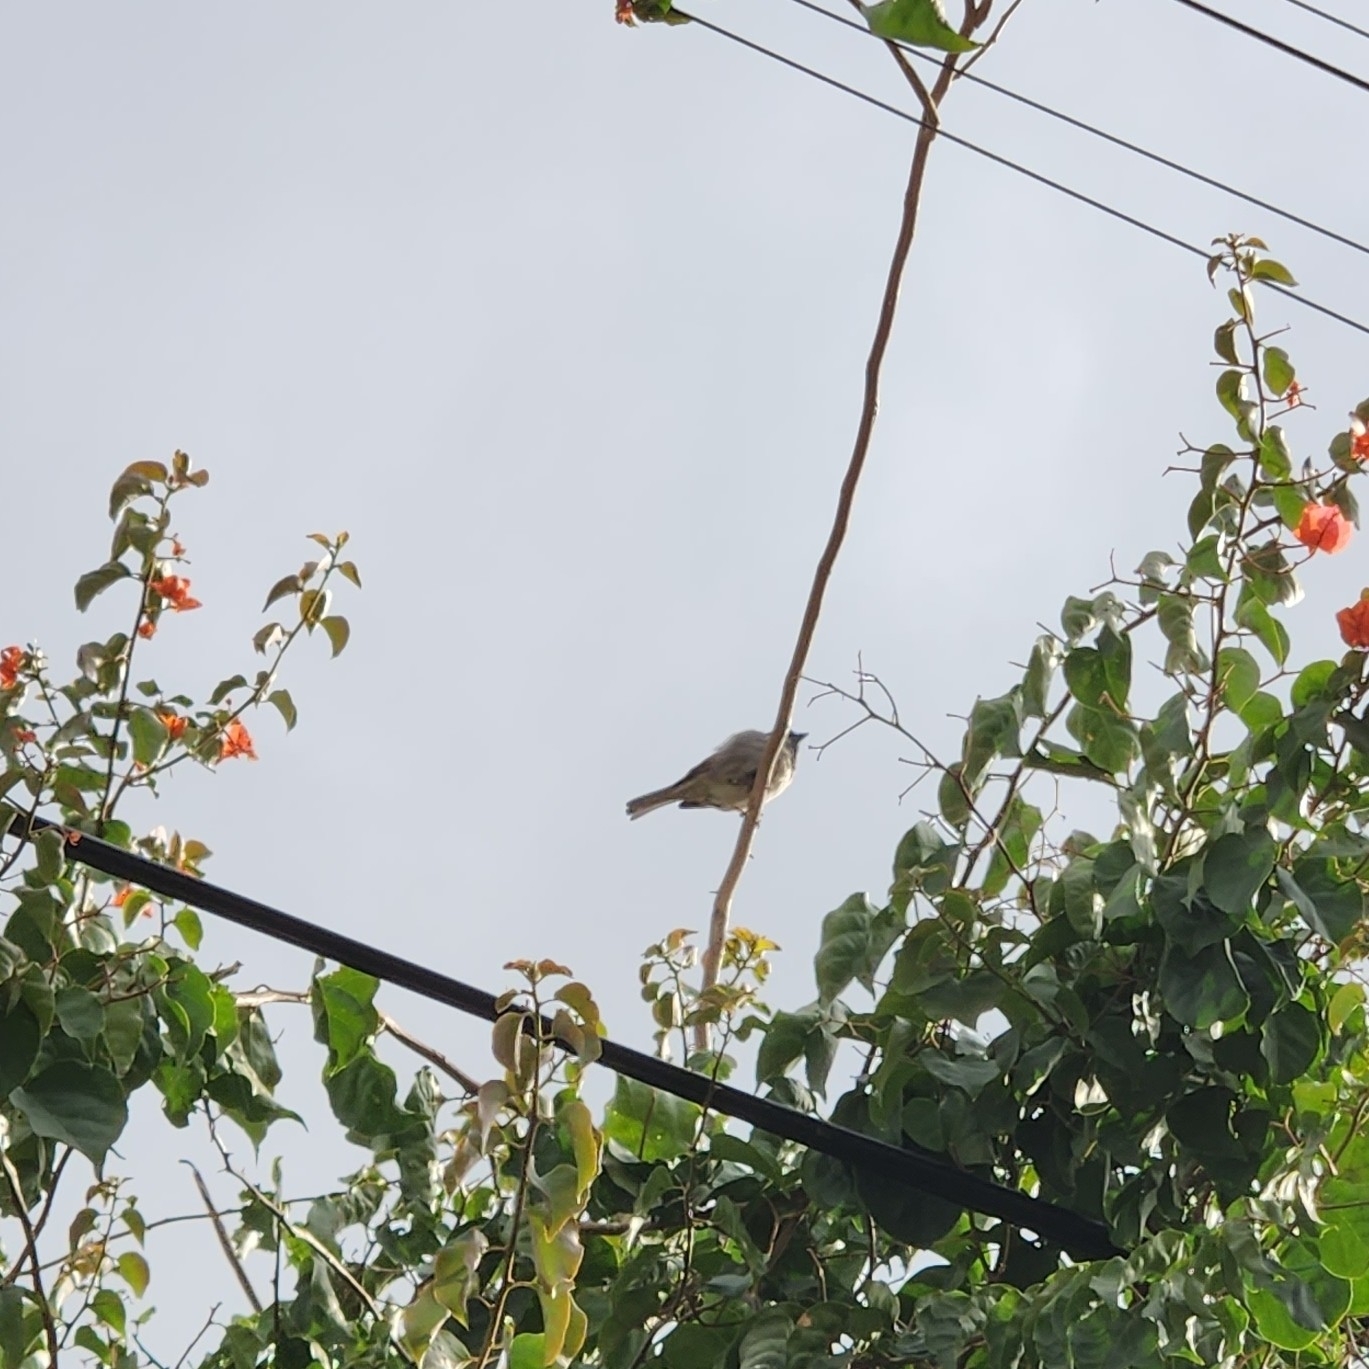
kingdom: Animalia
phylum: Chordata
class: Aves
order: Passeriformes
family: Passeridae
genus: Passer
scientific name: Passer domesticus
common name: House sparrow
